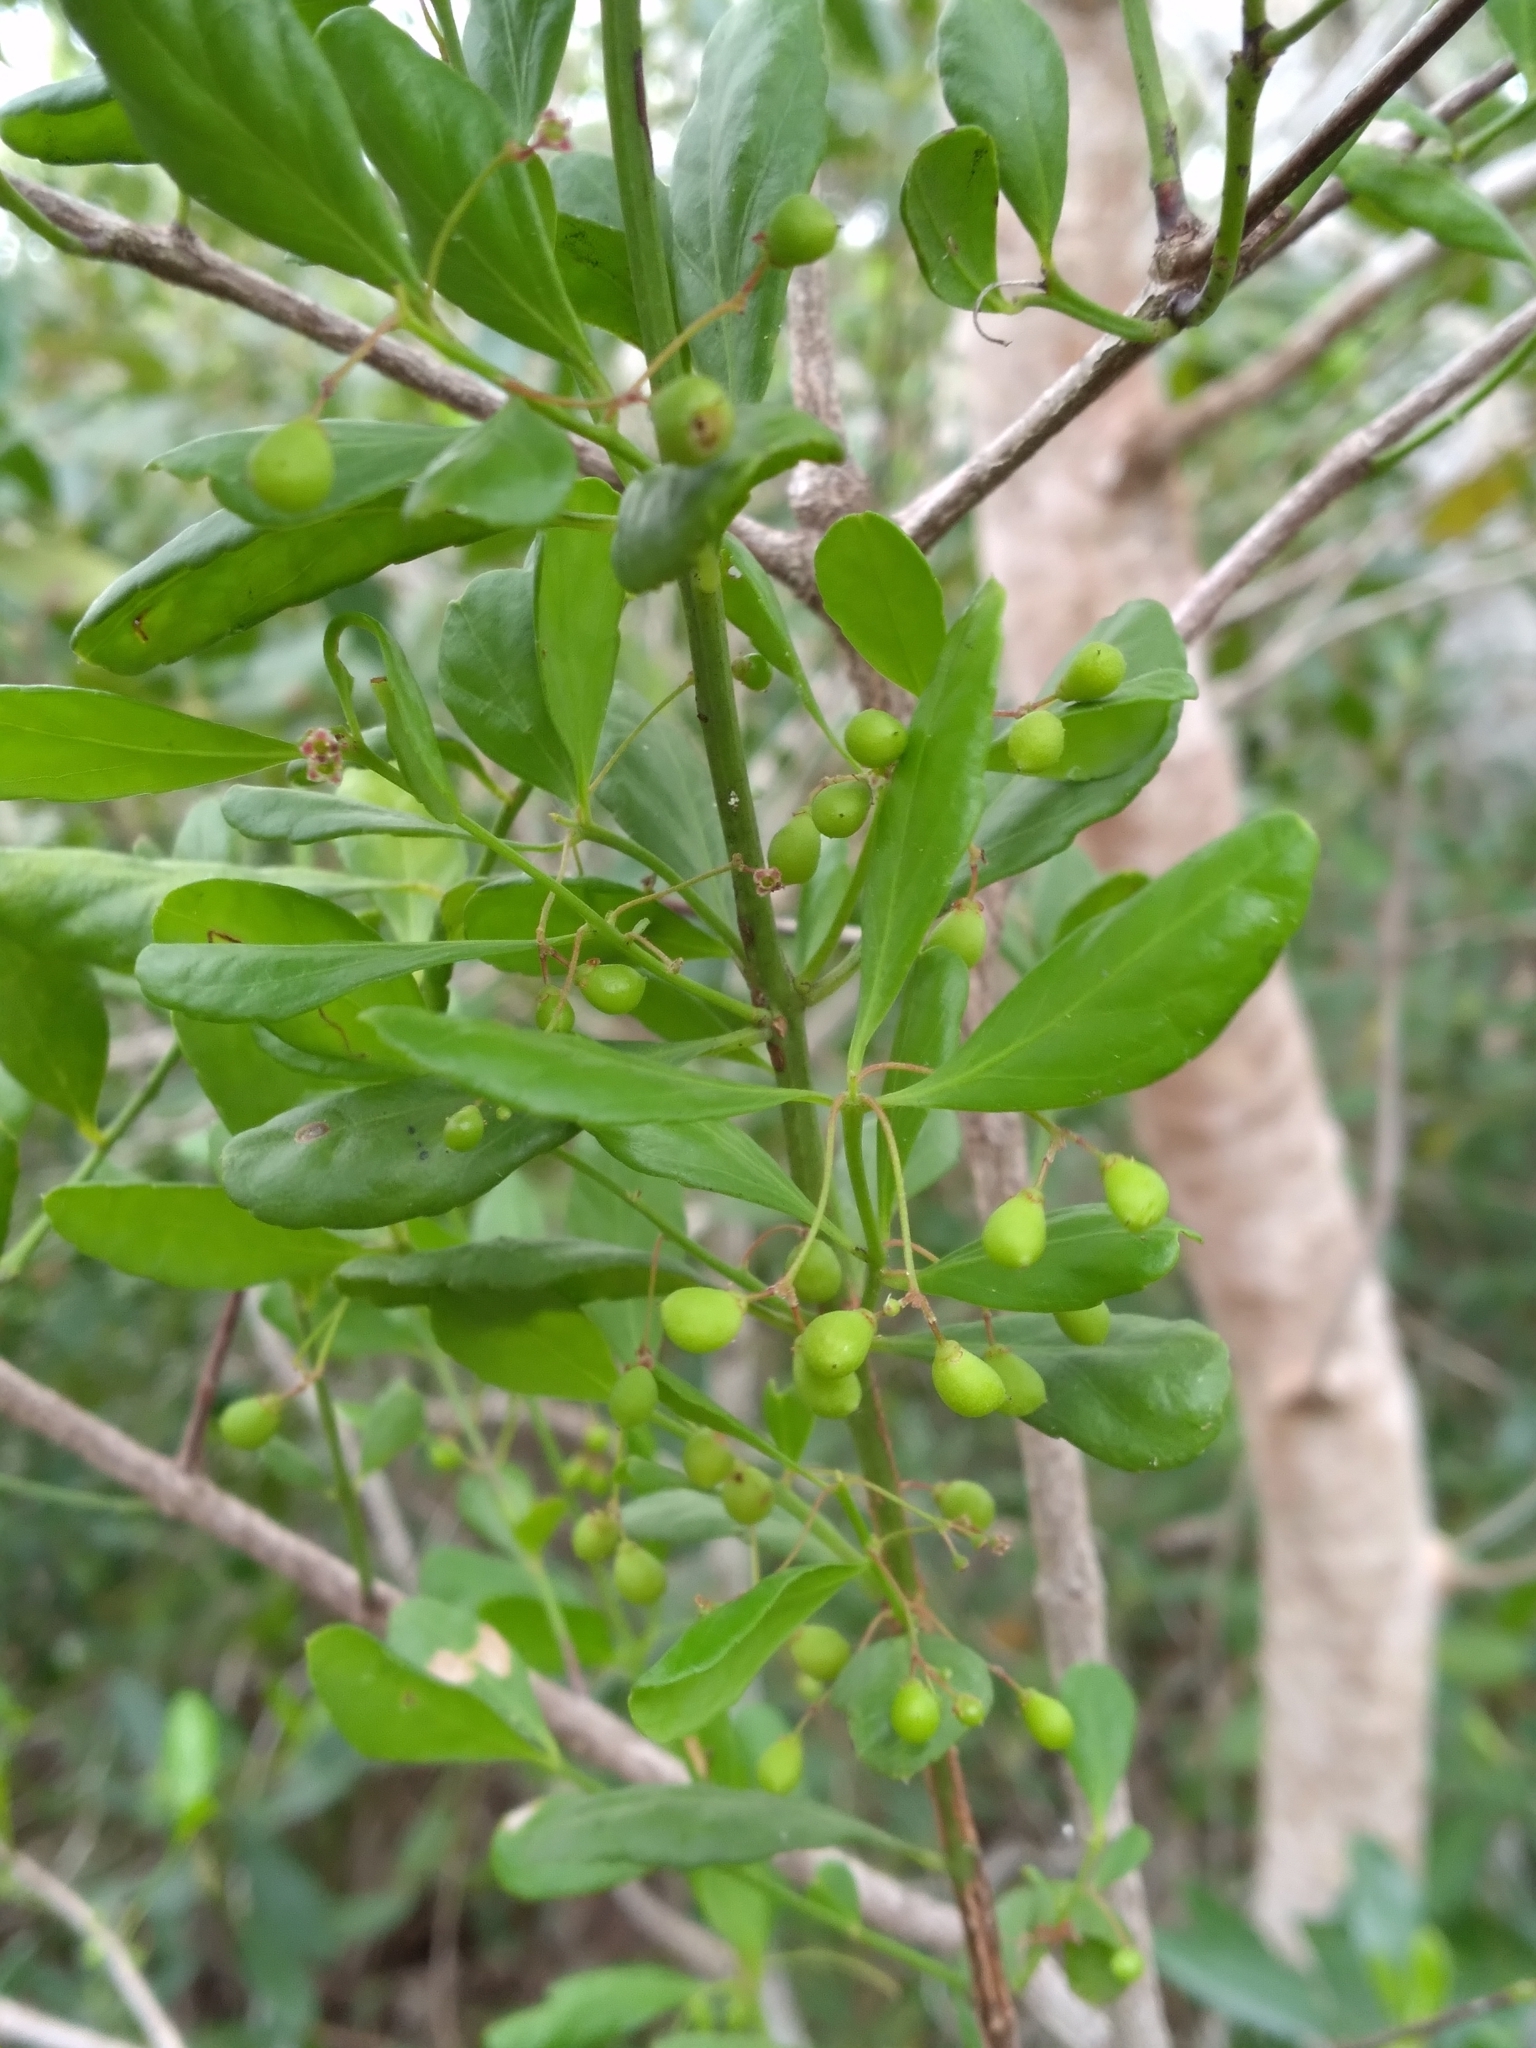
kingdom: Plantae
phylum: Tracheophyta
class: Magnoliopsida
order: Celastrales
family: Celastraceae
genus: Gyminda
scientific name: Gyminda latifolia
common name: False boxwood
